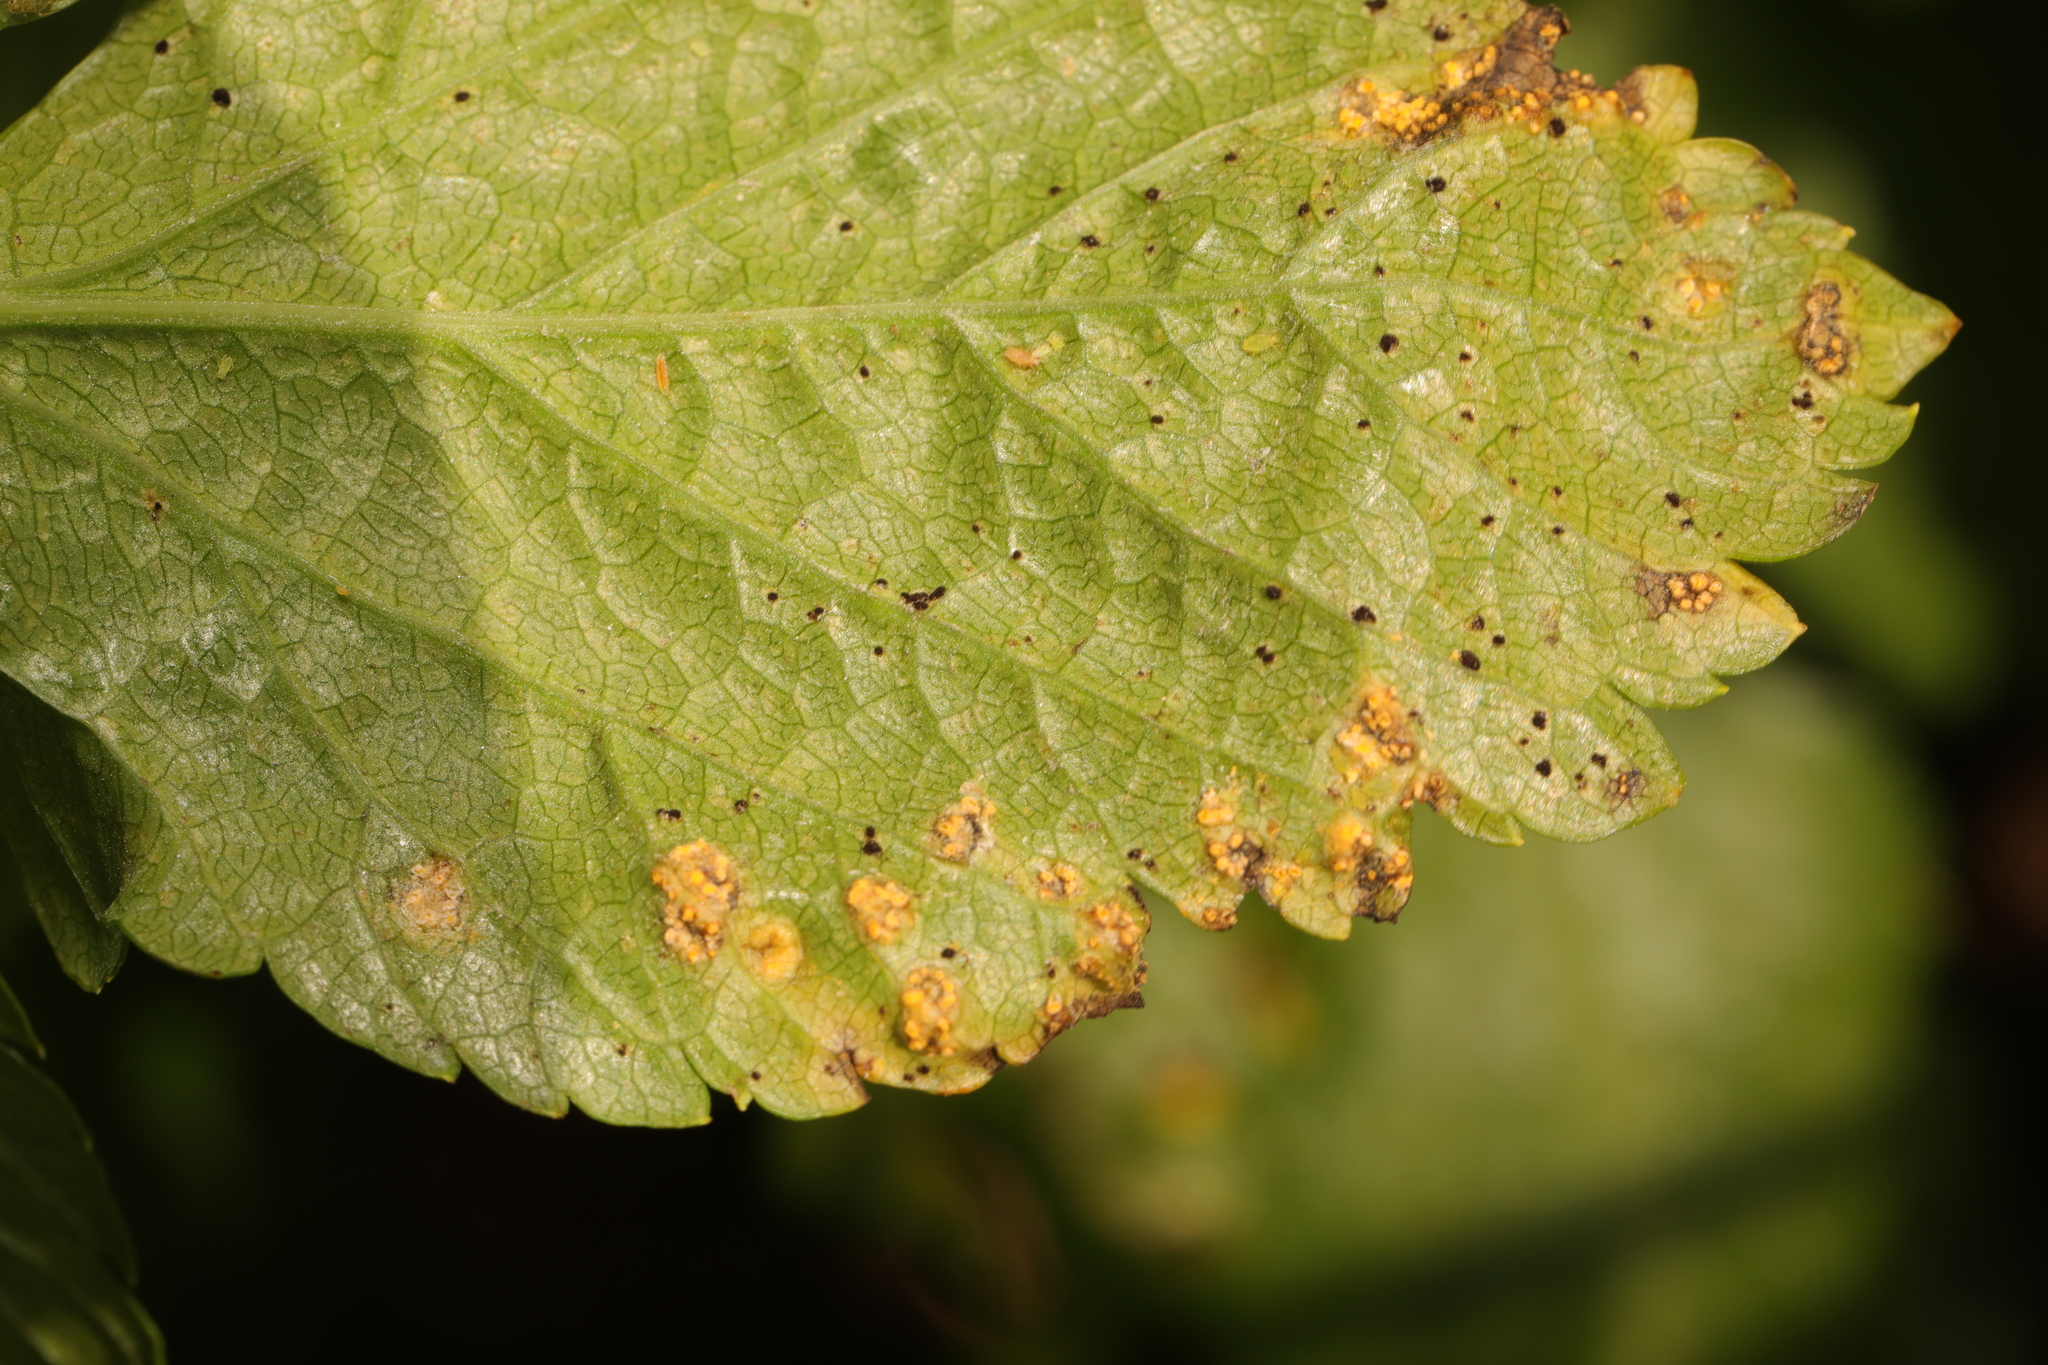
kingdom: Fungi
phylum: Basidiomycota
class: Pucciniomycetes
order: Pucciniales
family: Pucciniaceae
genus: Puccinia
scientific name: Puccinia smyrnii
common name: Alexanders rust
